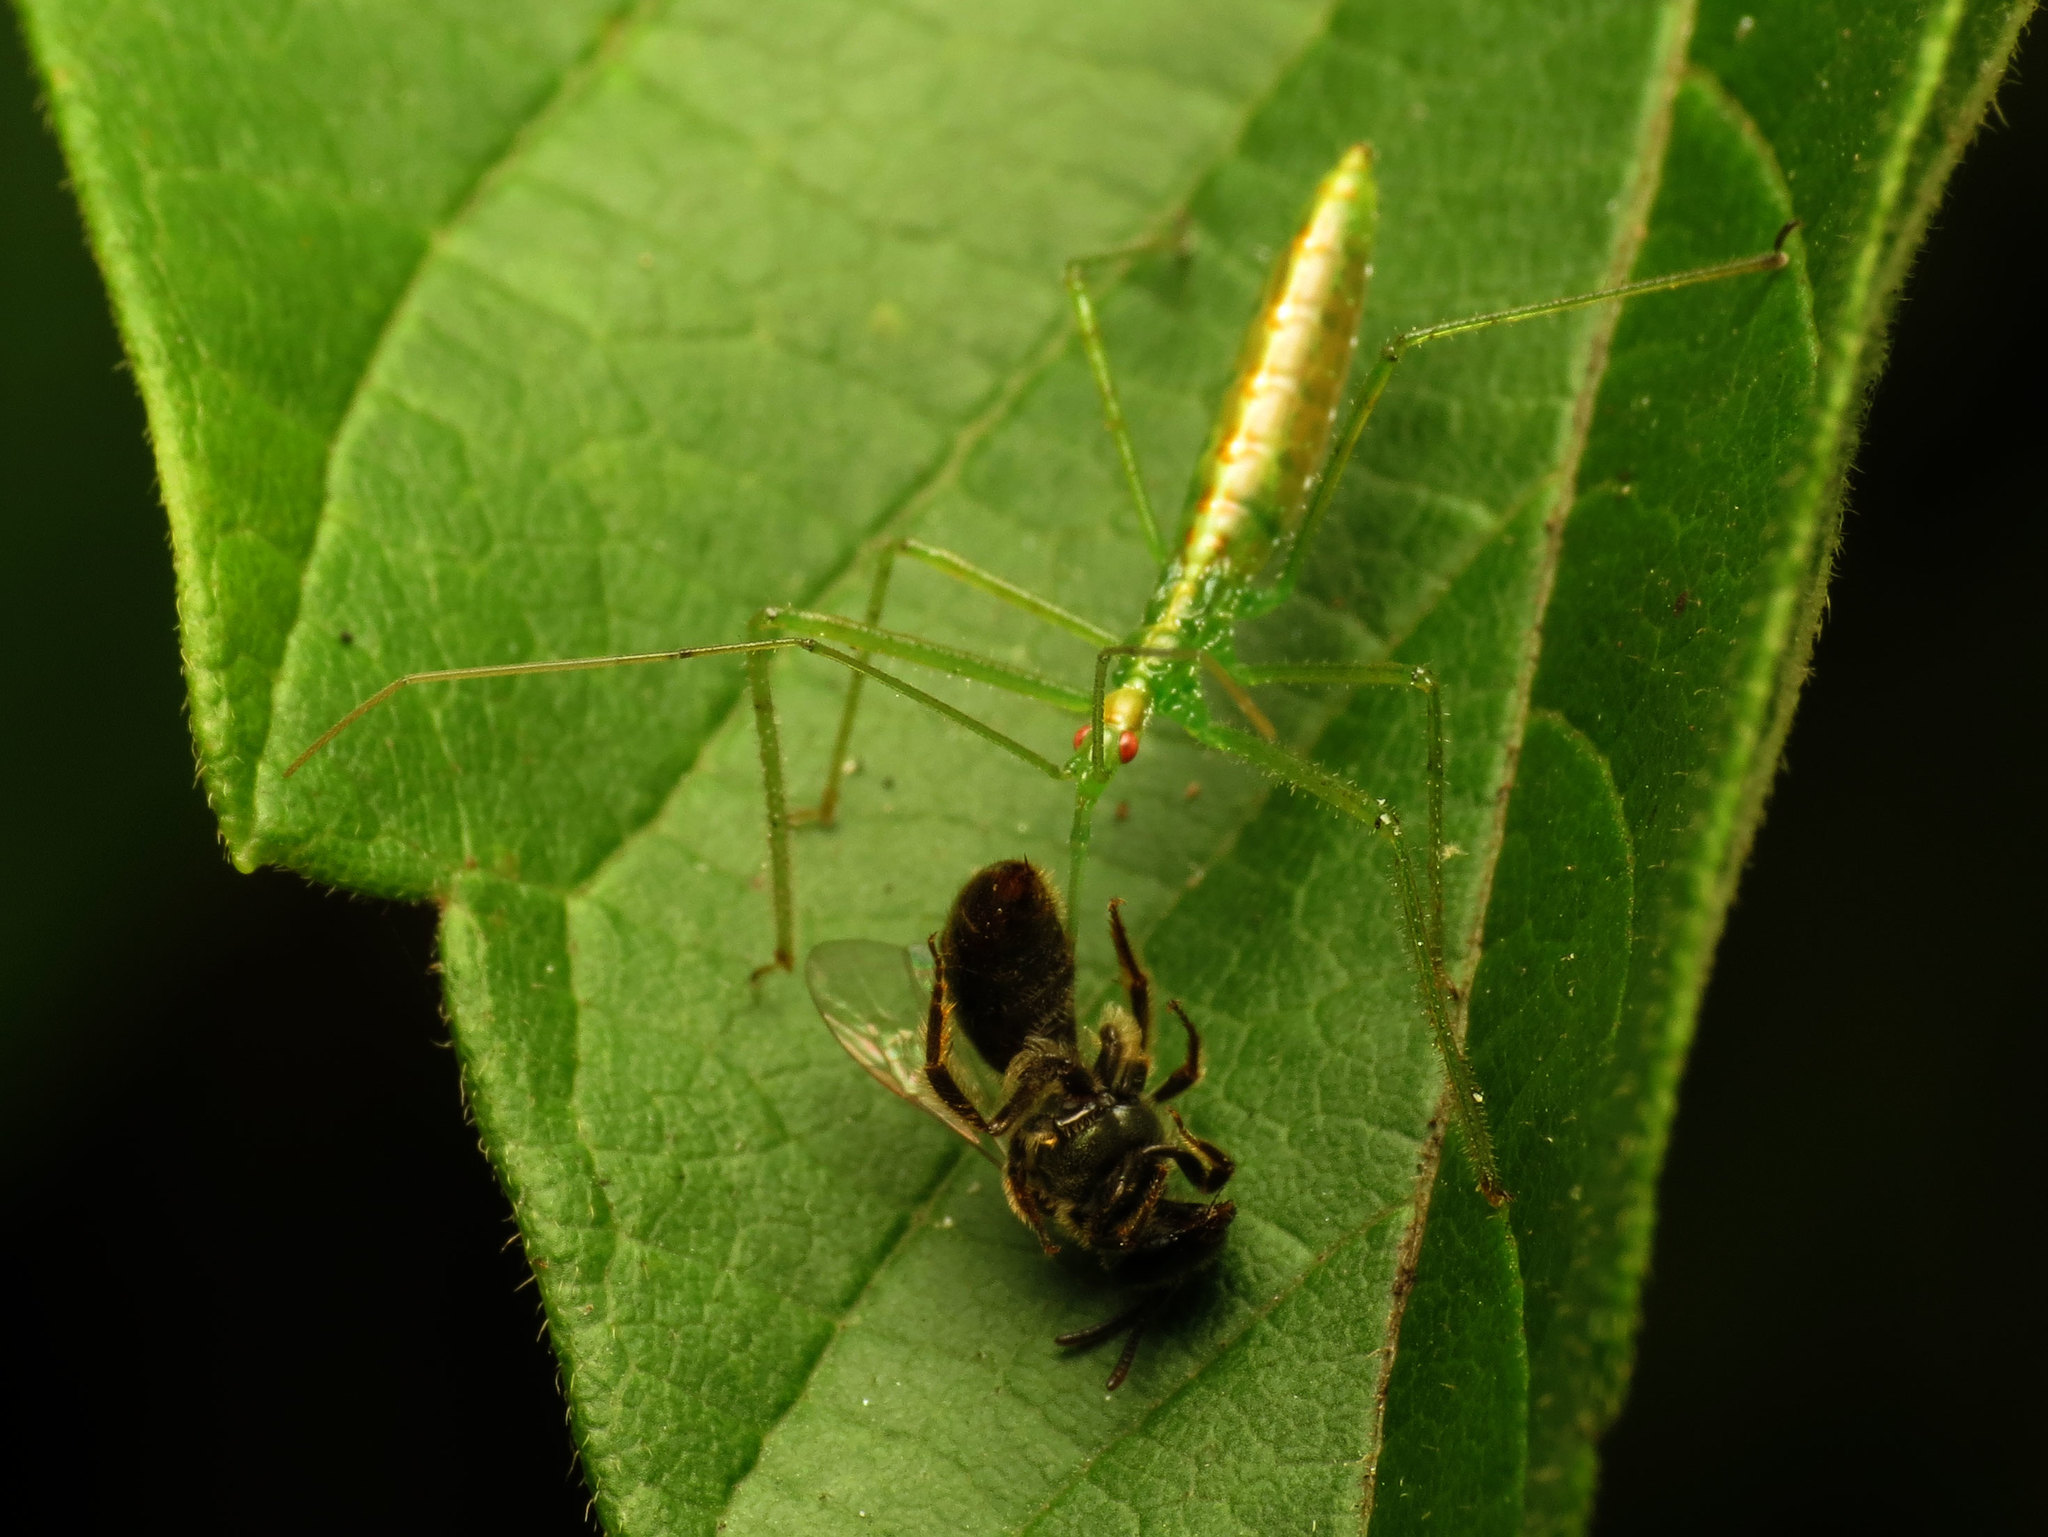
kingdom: Animalia
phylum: Arthropoda
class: Insecta
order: Hemiptera
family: Reduviidae
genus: Zelus
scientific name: Zelus luridus
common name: Pale green assassin bug
